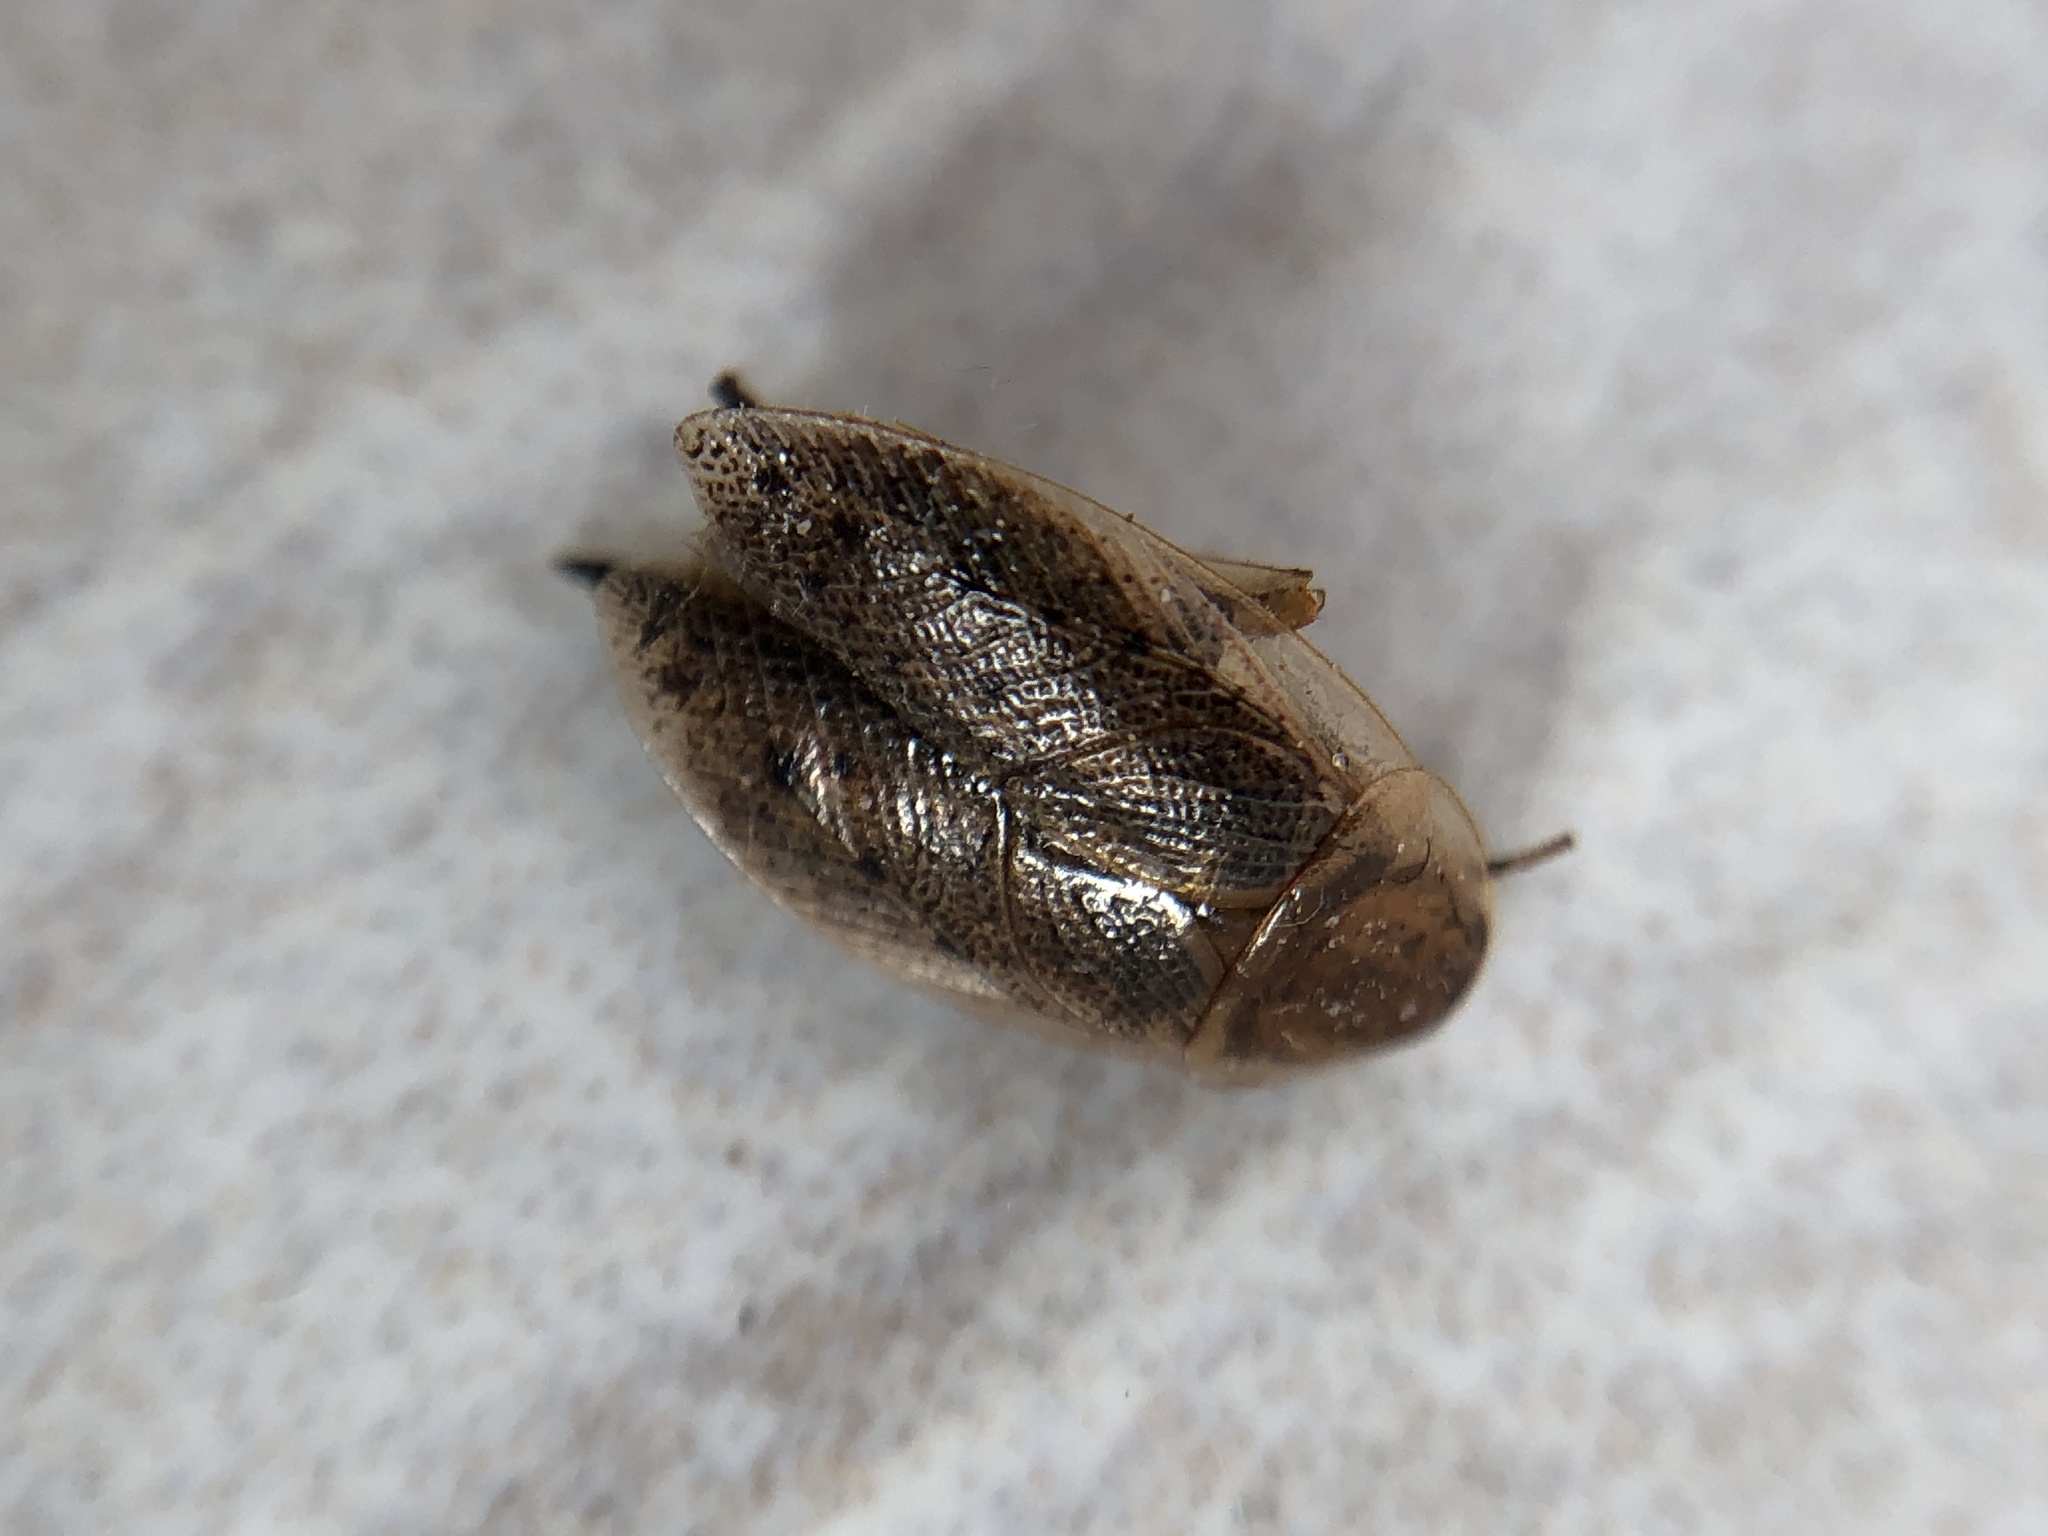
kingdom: Animalia
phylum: Arthropoda
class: Insecta
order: Blattodea
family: Ectobiidae
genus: Ectobius
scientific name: Ectobius lapponicus
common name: Dusky cockroach
